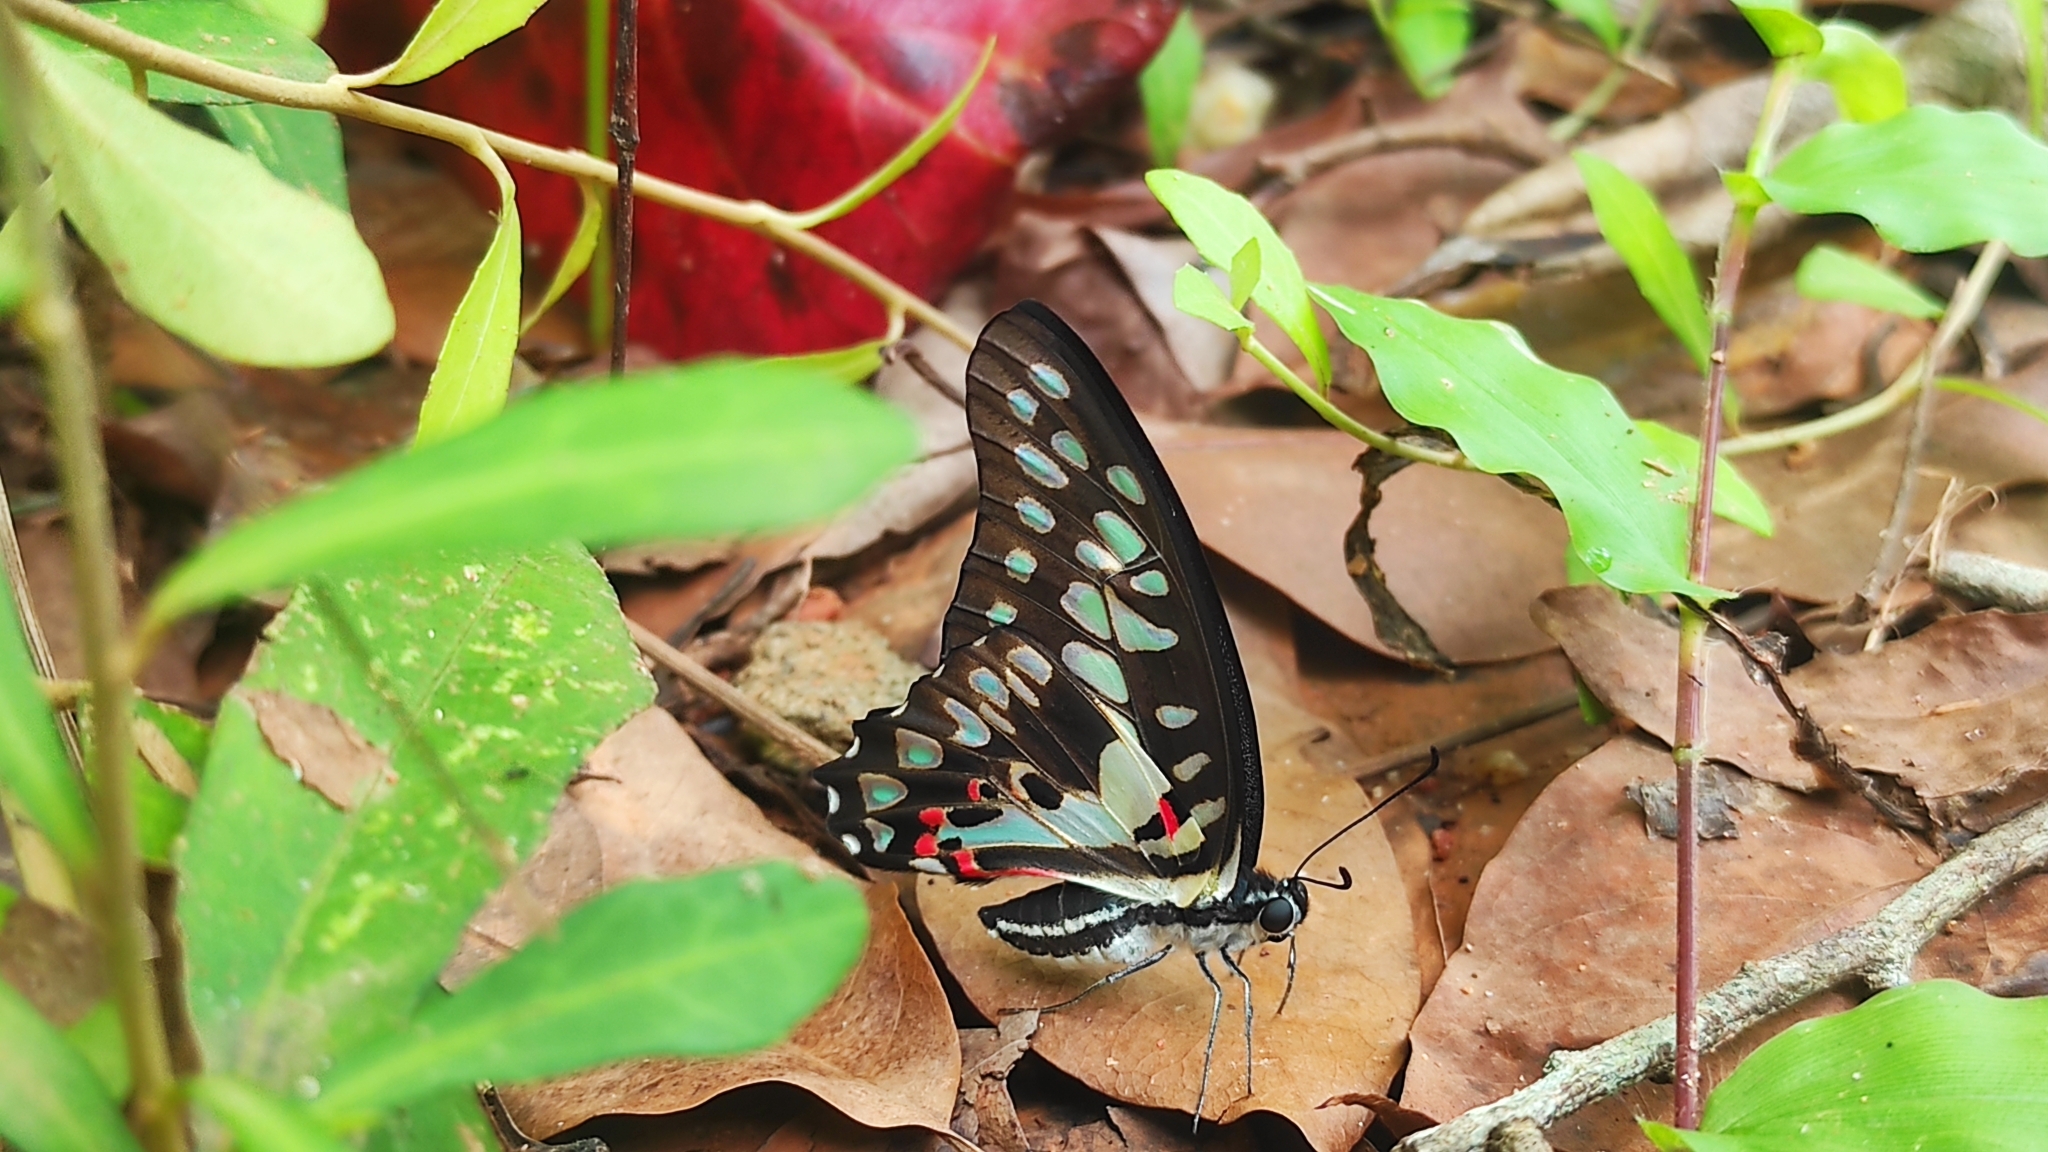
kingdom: Animalia
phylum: Arthropoda
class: Insecta
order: Lepidoptera
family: Papilionidae
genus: Graphium
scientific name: Graphium doson
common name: Common jay
